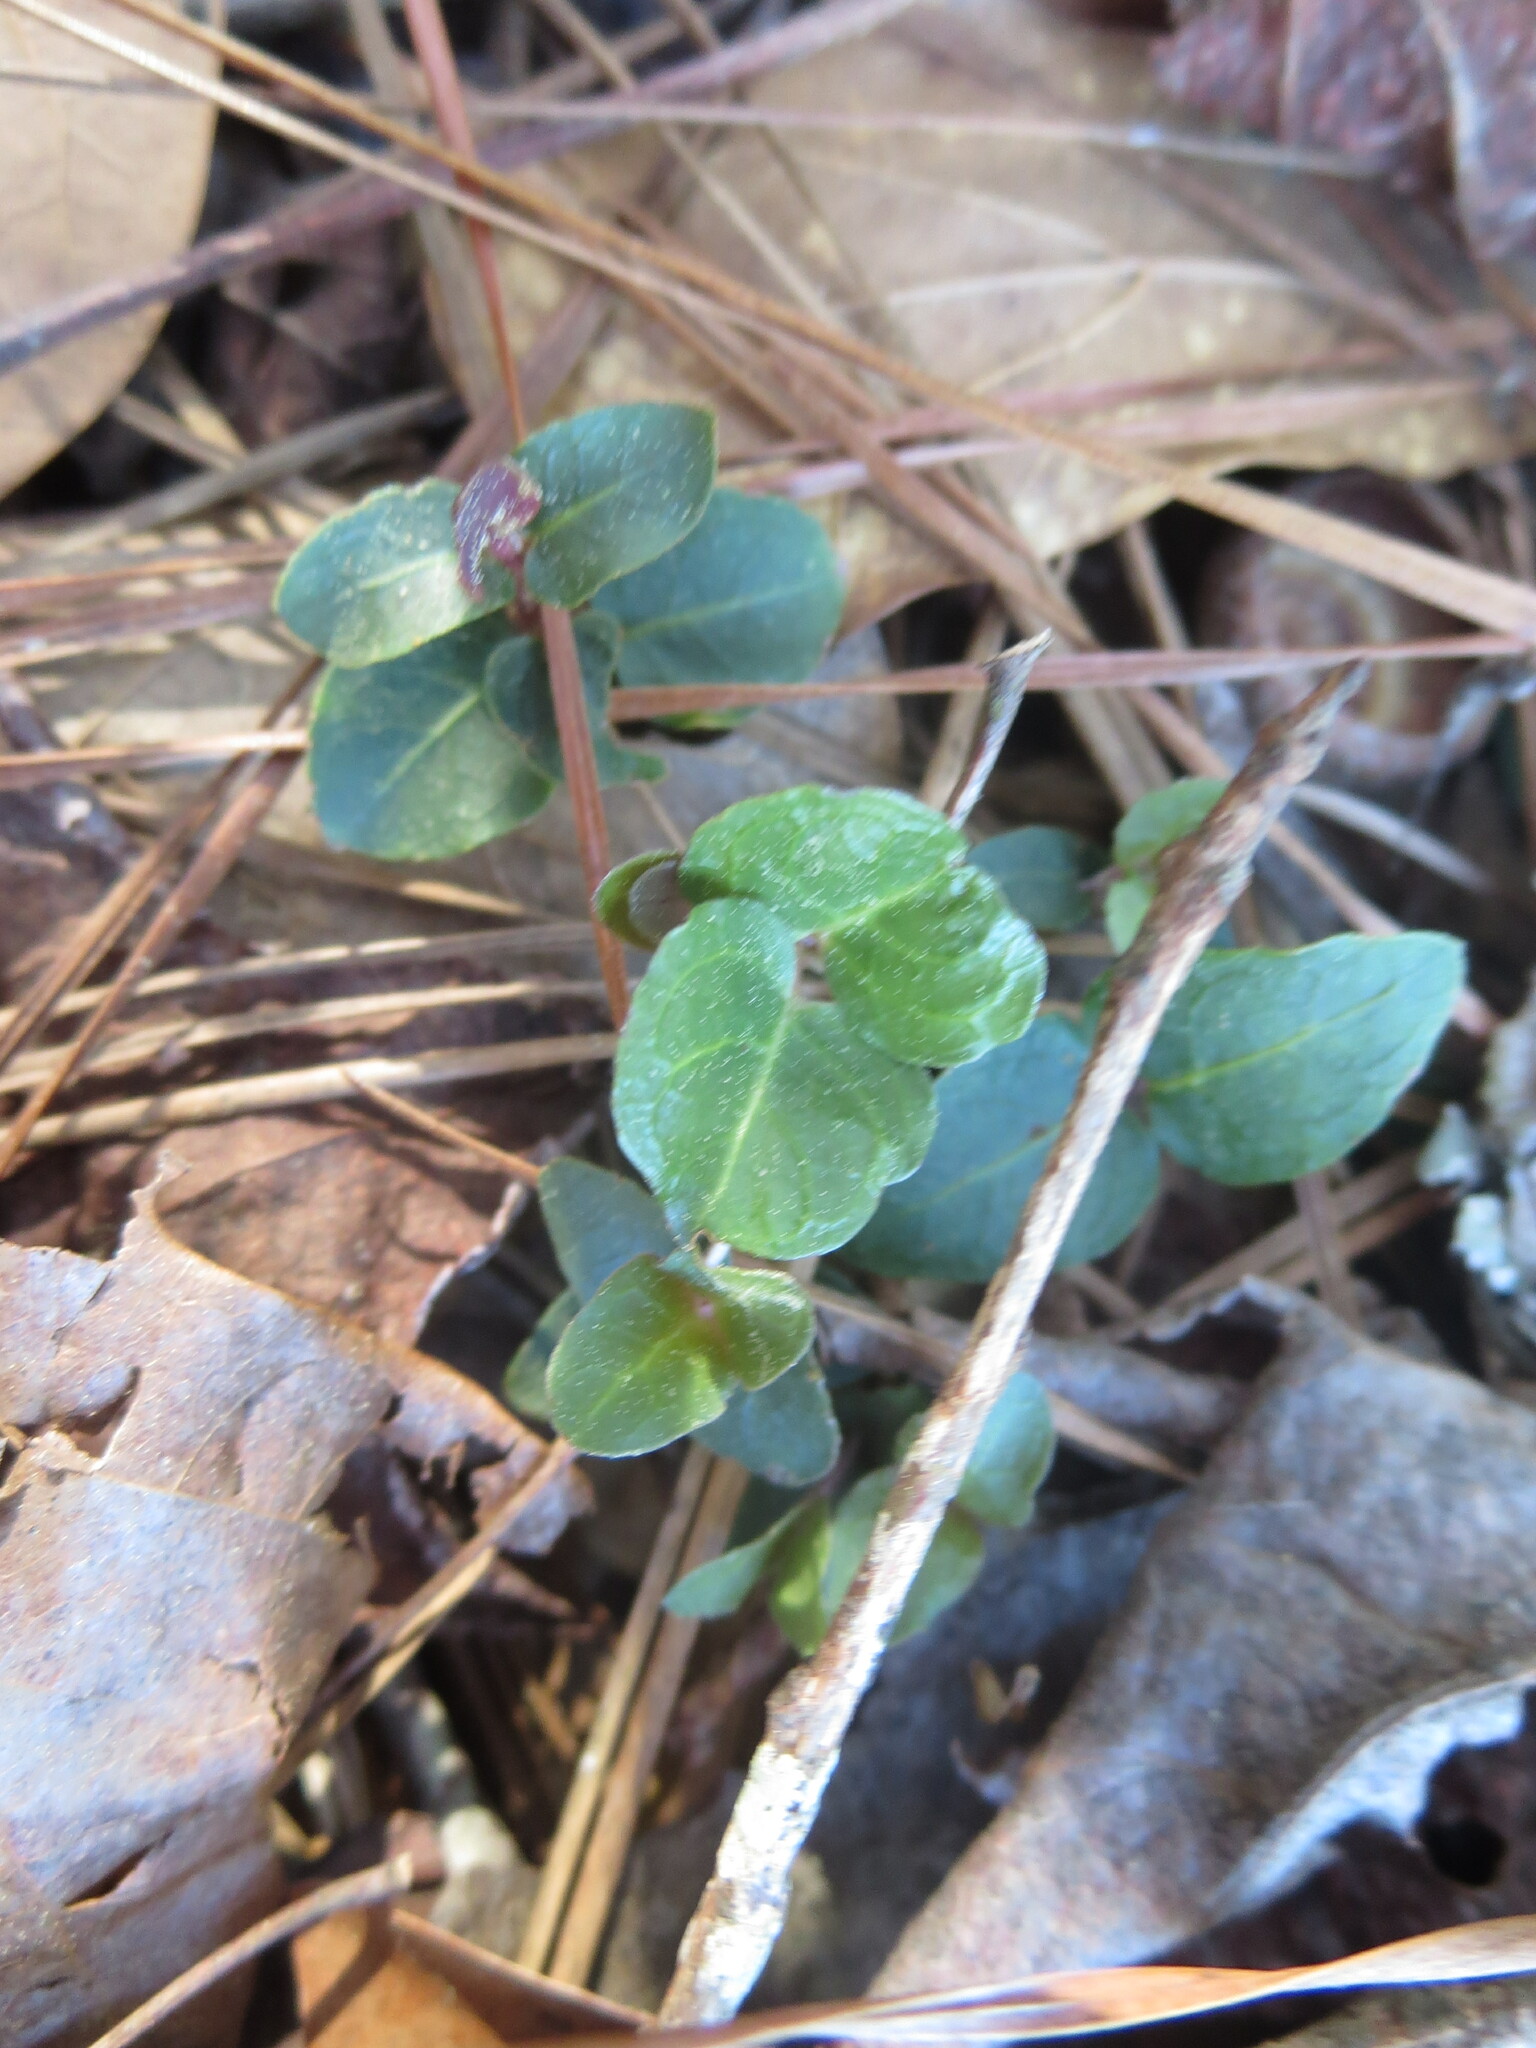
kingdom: Plantae
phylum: Tracheophyta
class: Magnoliopsida
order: Gentianales
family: Rubiaceae
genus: Mitchella
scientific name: Mitchella repens
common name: Partridge-berry
